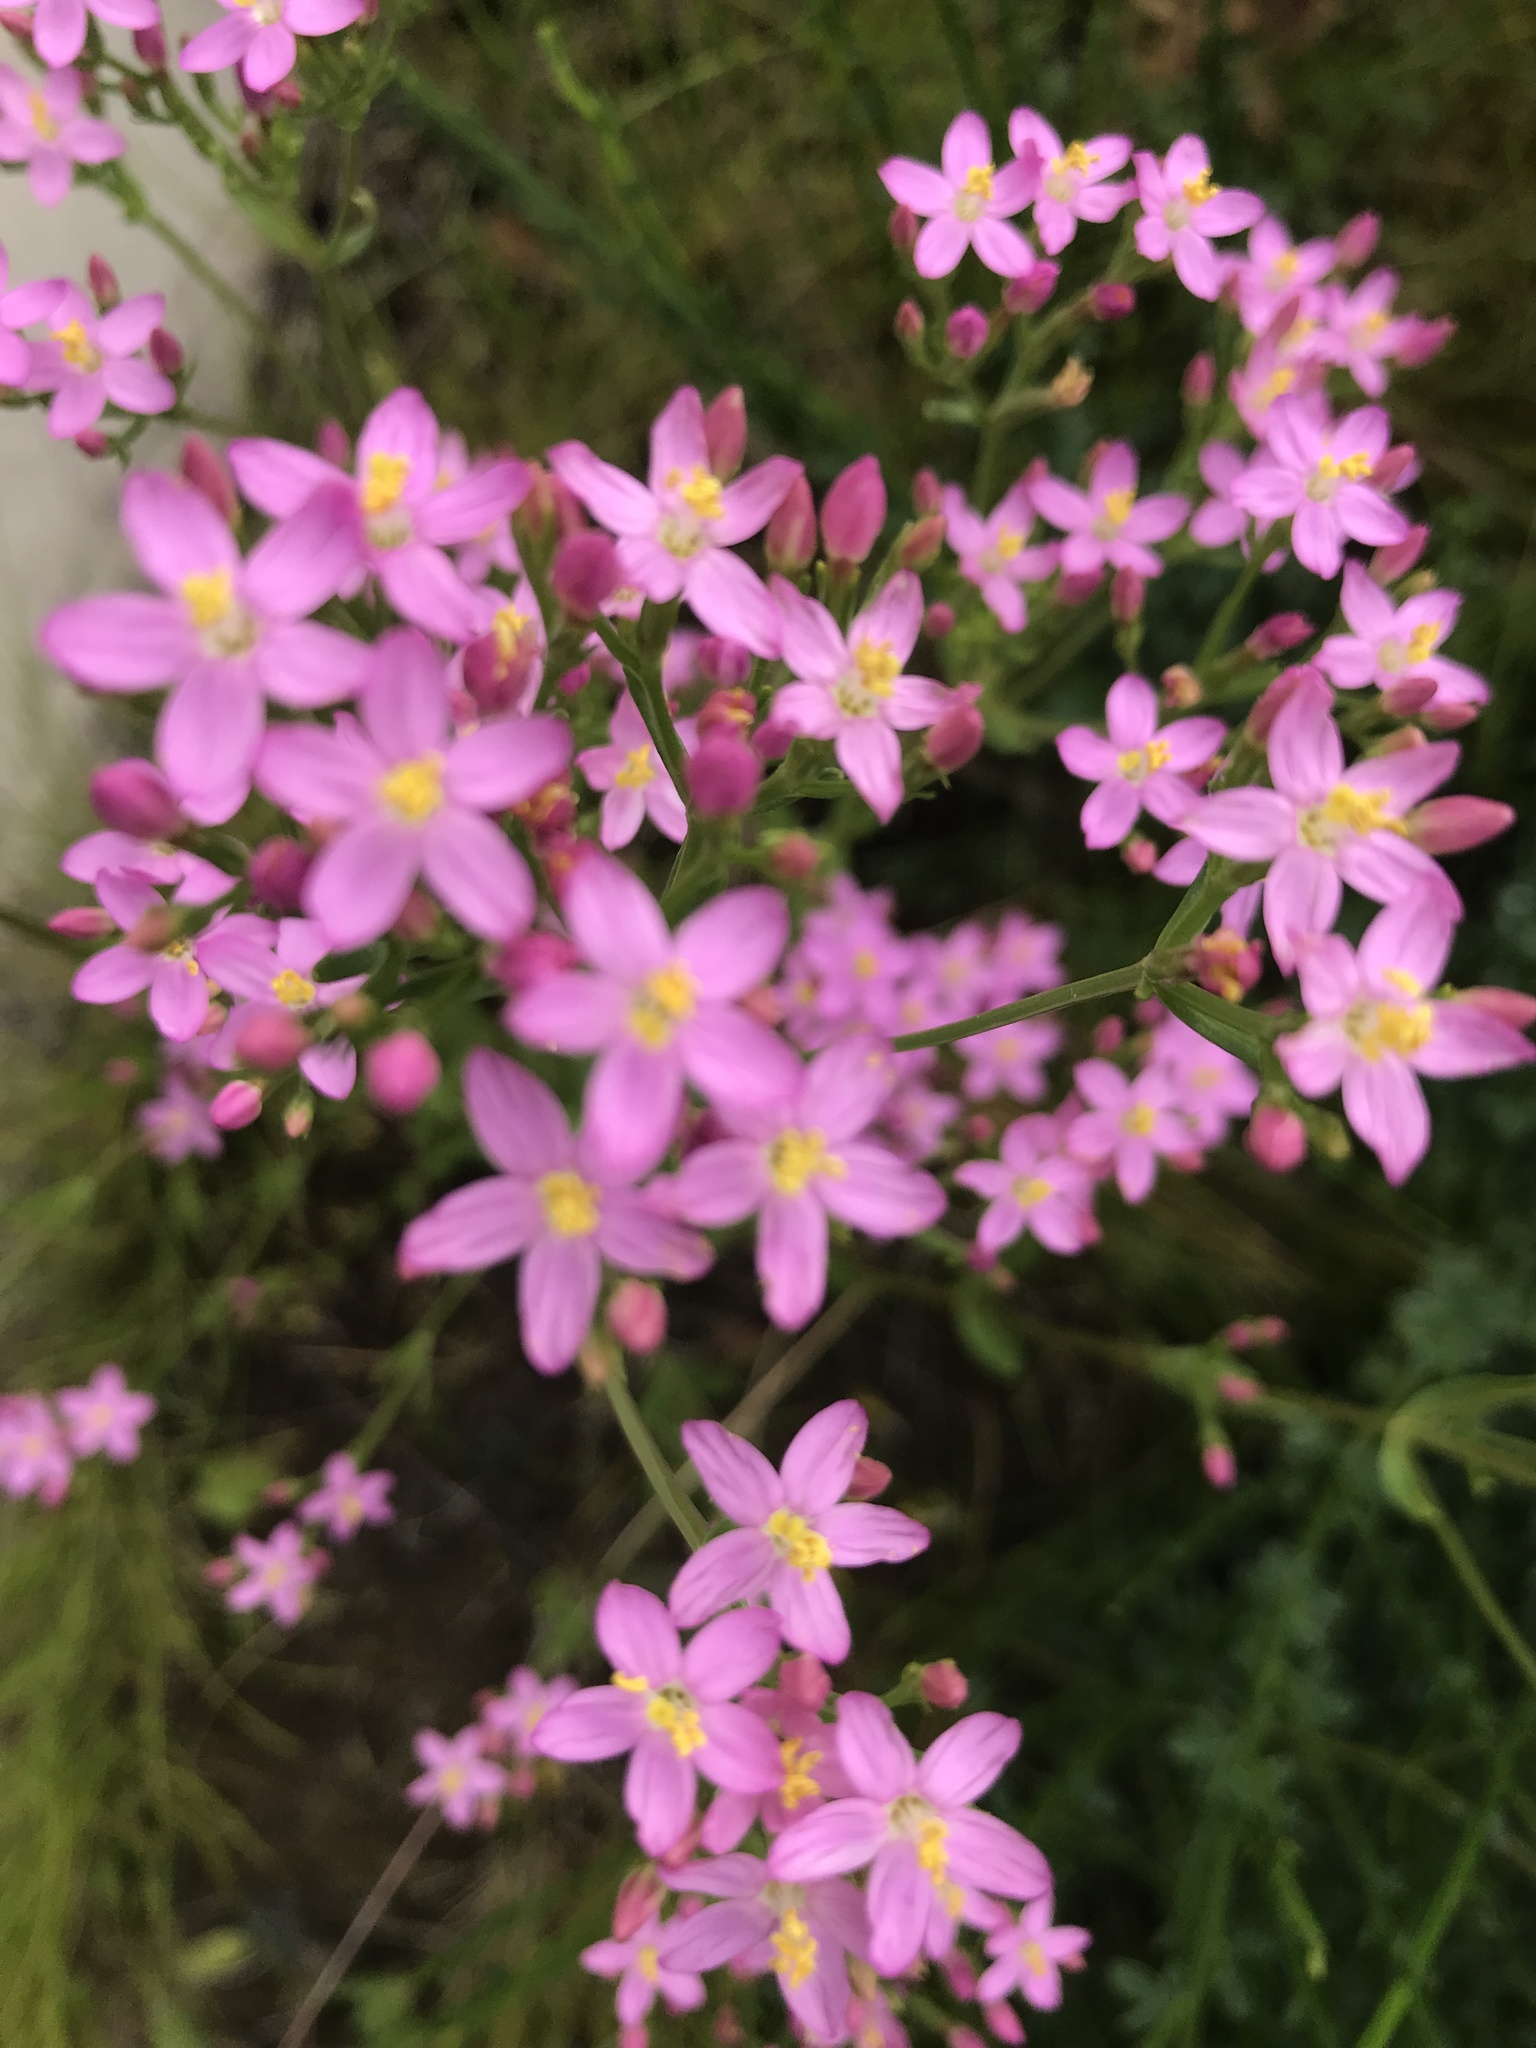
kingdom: Plantae
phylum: Tracheophyta
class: Magnoliopsida
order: Gentianales
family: Gentianaceae
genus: Centaurium
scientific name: Centaurium erythraea
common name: Common centaury
